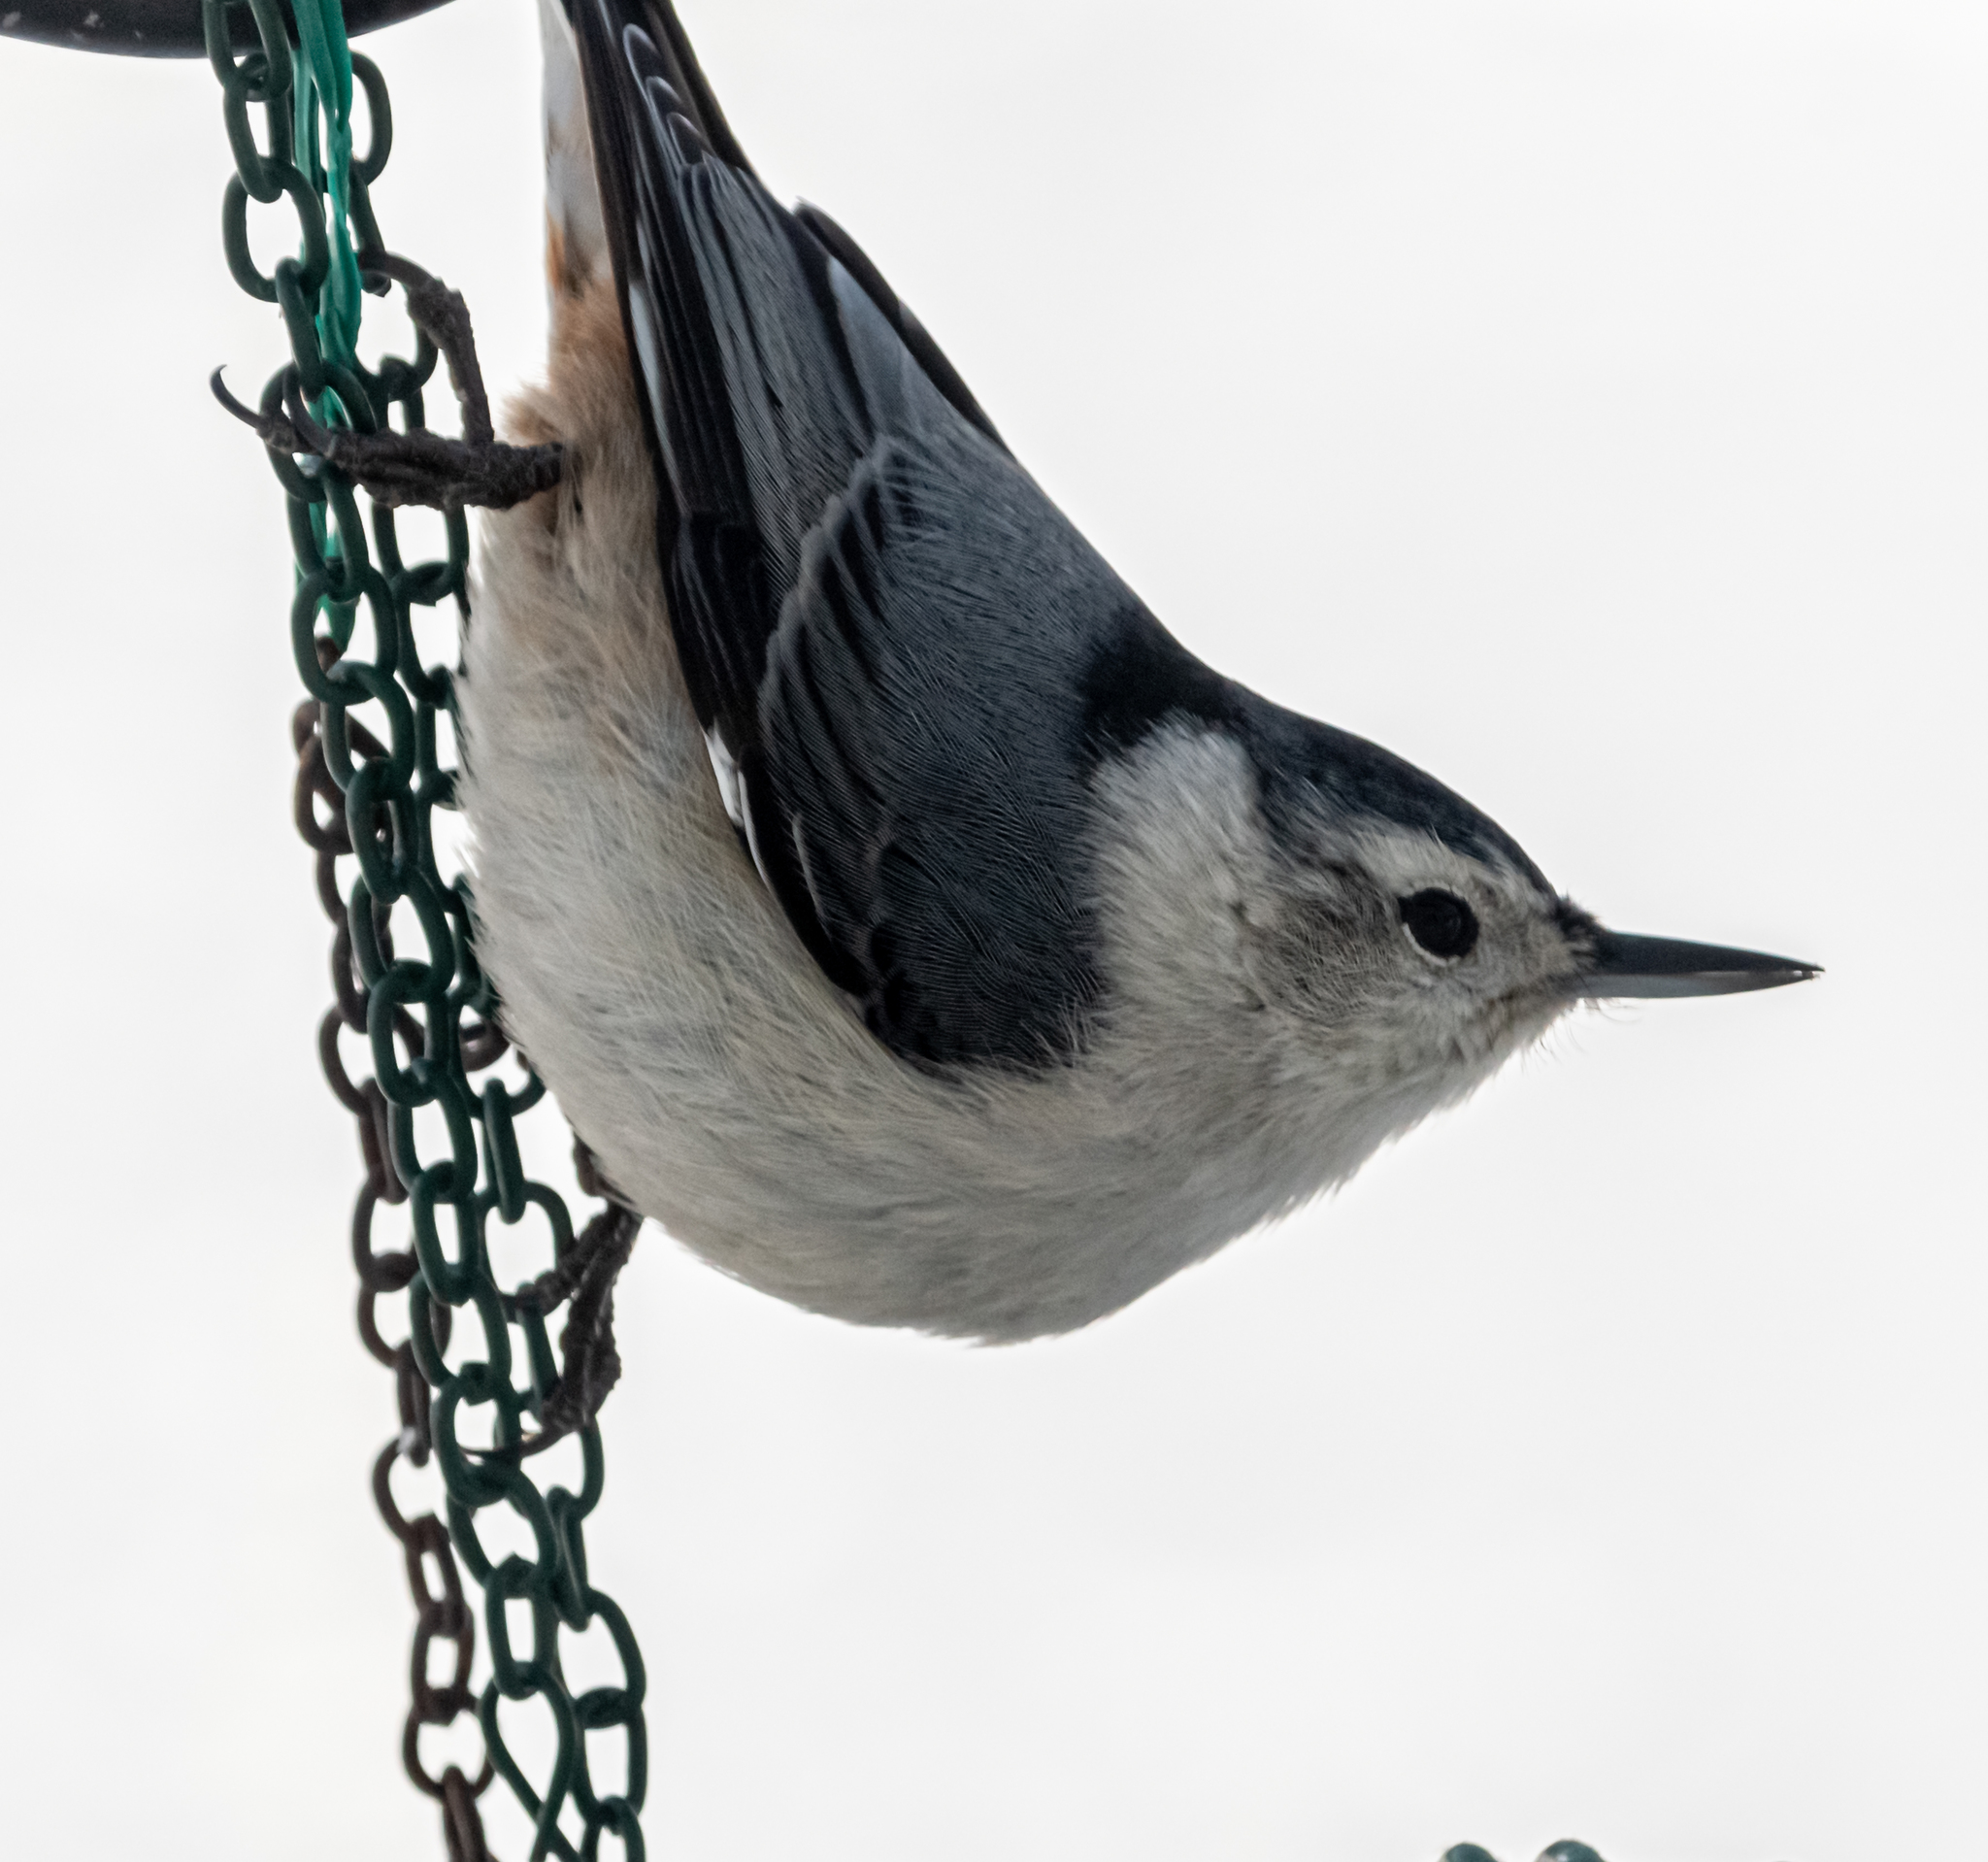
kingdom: Animalia
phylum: Chordata
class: Aves
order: Passeriformes
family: Sittidae
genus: Sitta
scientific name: Sitta carolinensis
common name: White-breasted nuthatch
